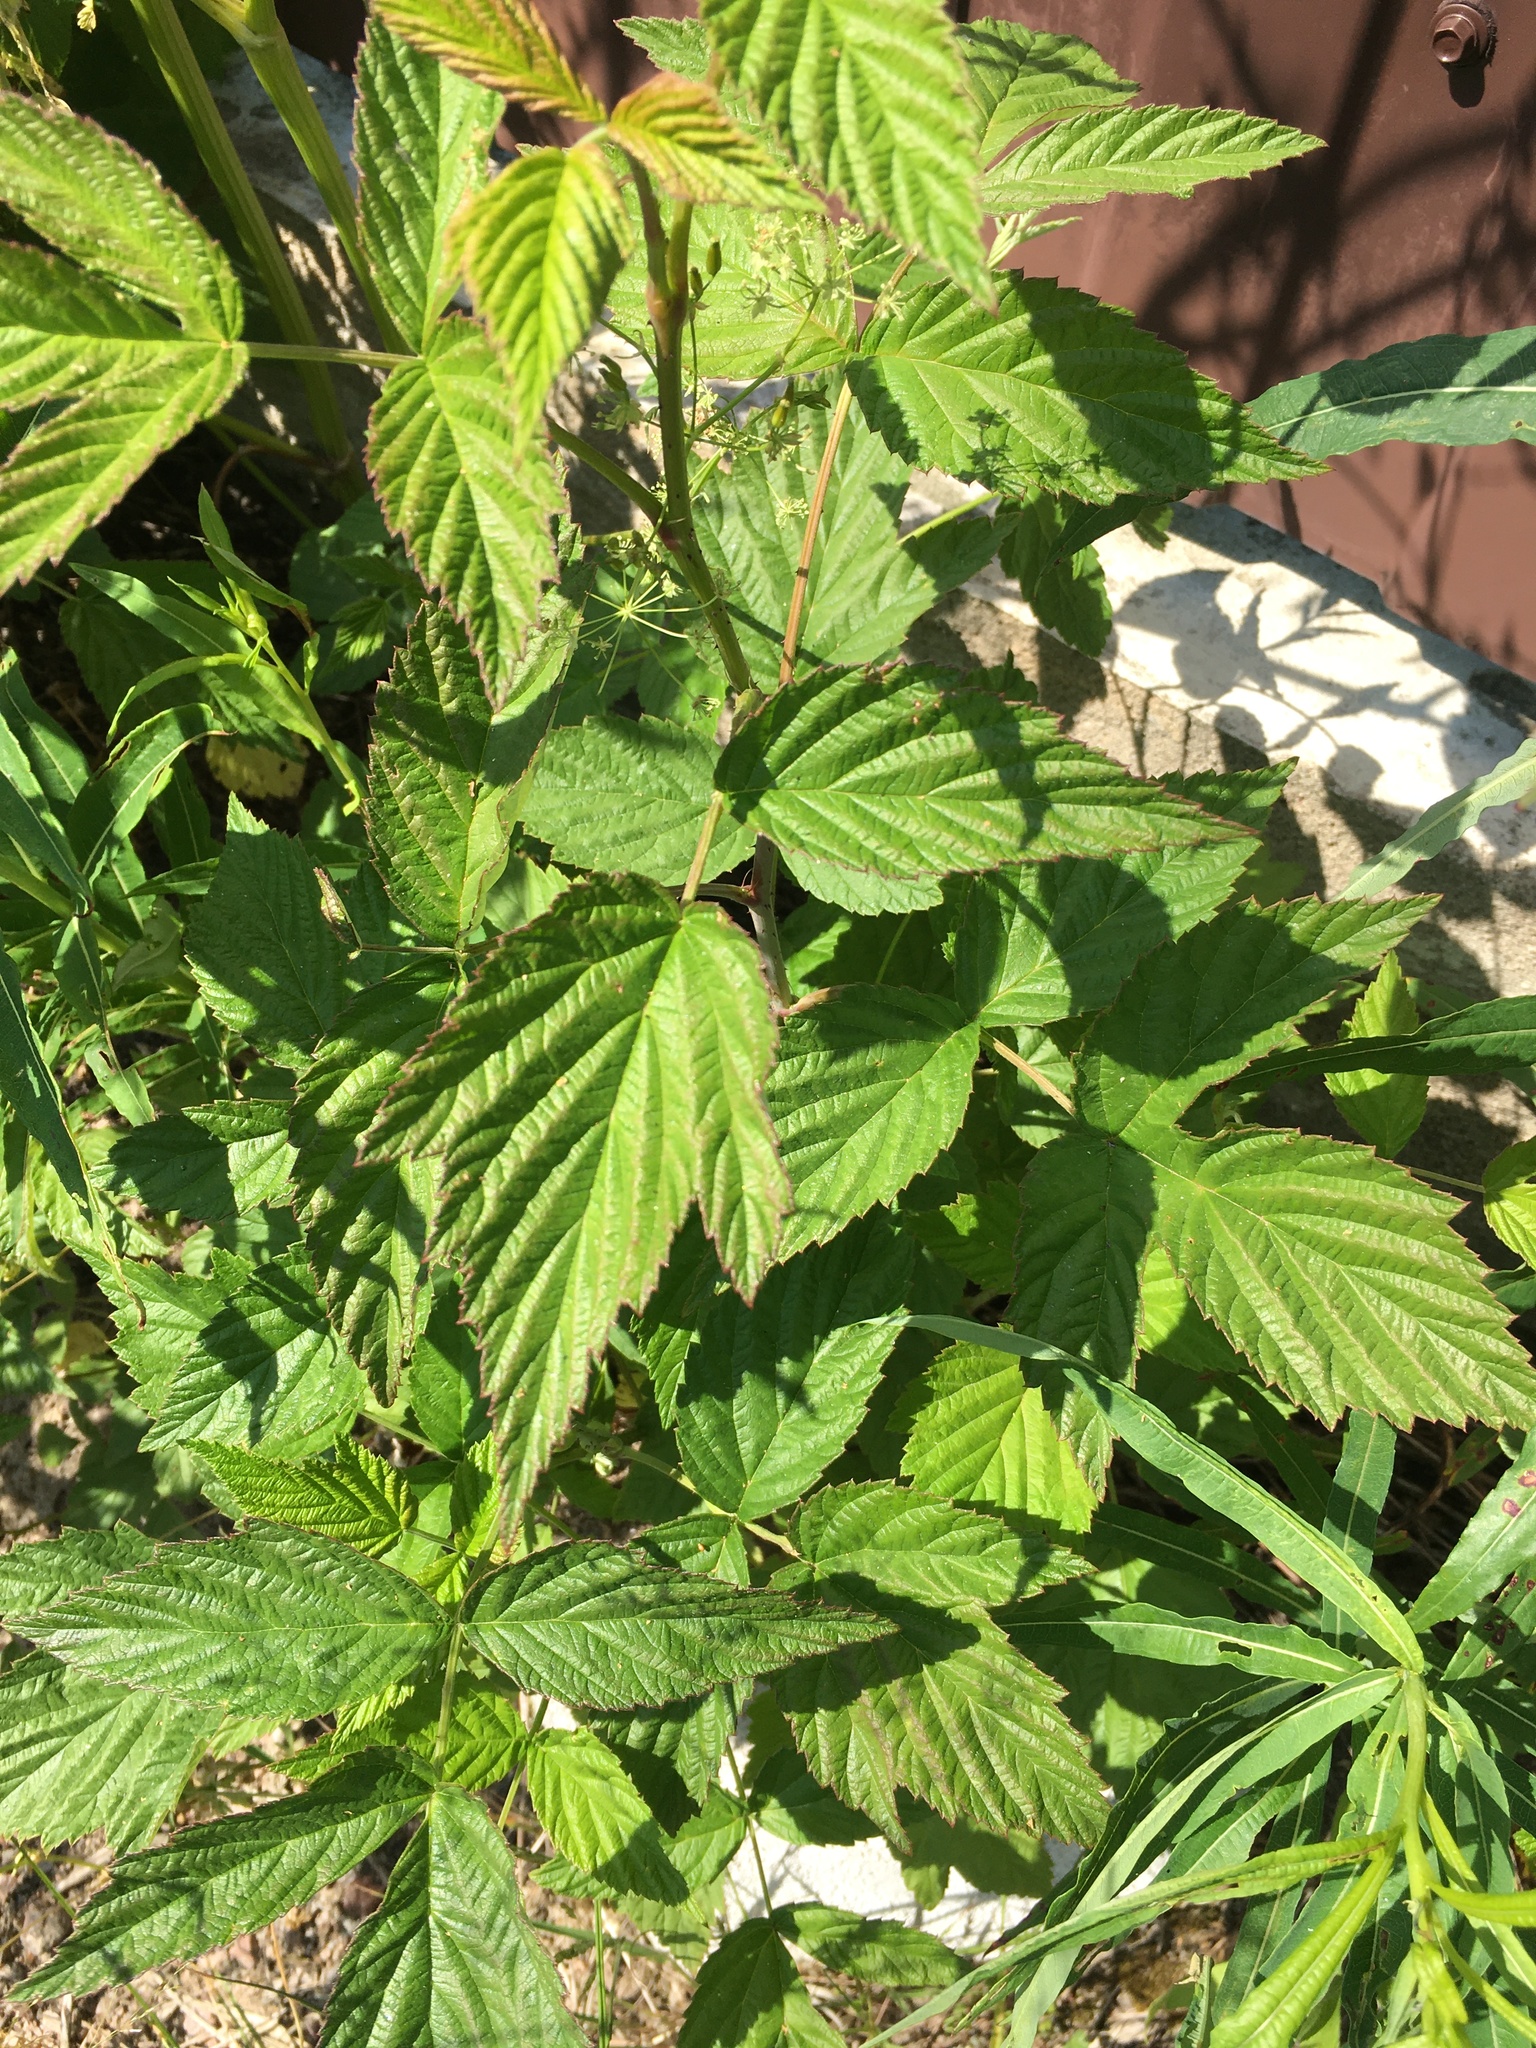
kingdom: Plantae
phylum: Tracheophyta
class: Magnoliopsida
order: Rosales
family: Rosaceae
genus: Rubus
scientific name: Rubus idaeus
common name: Raspberry
